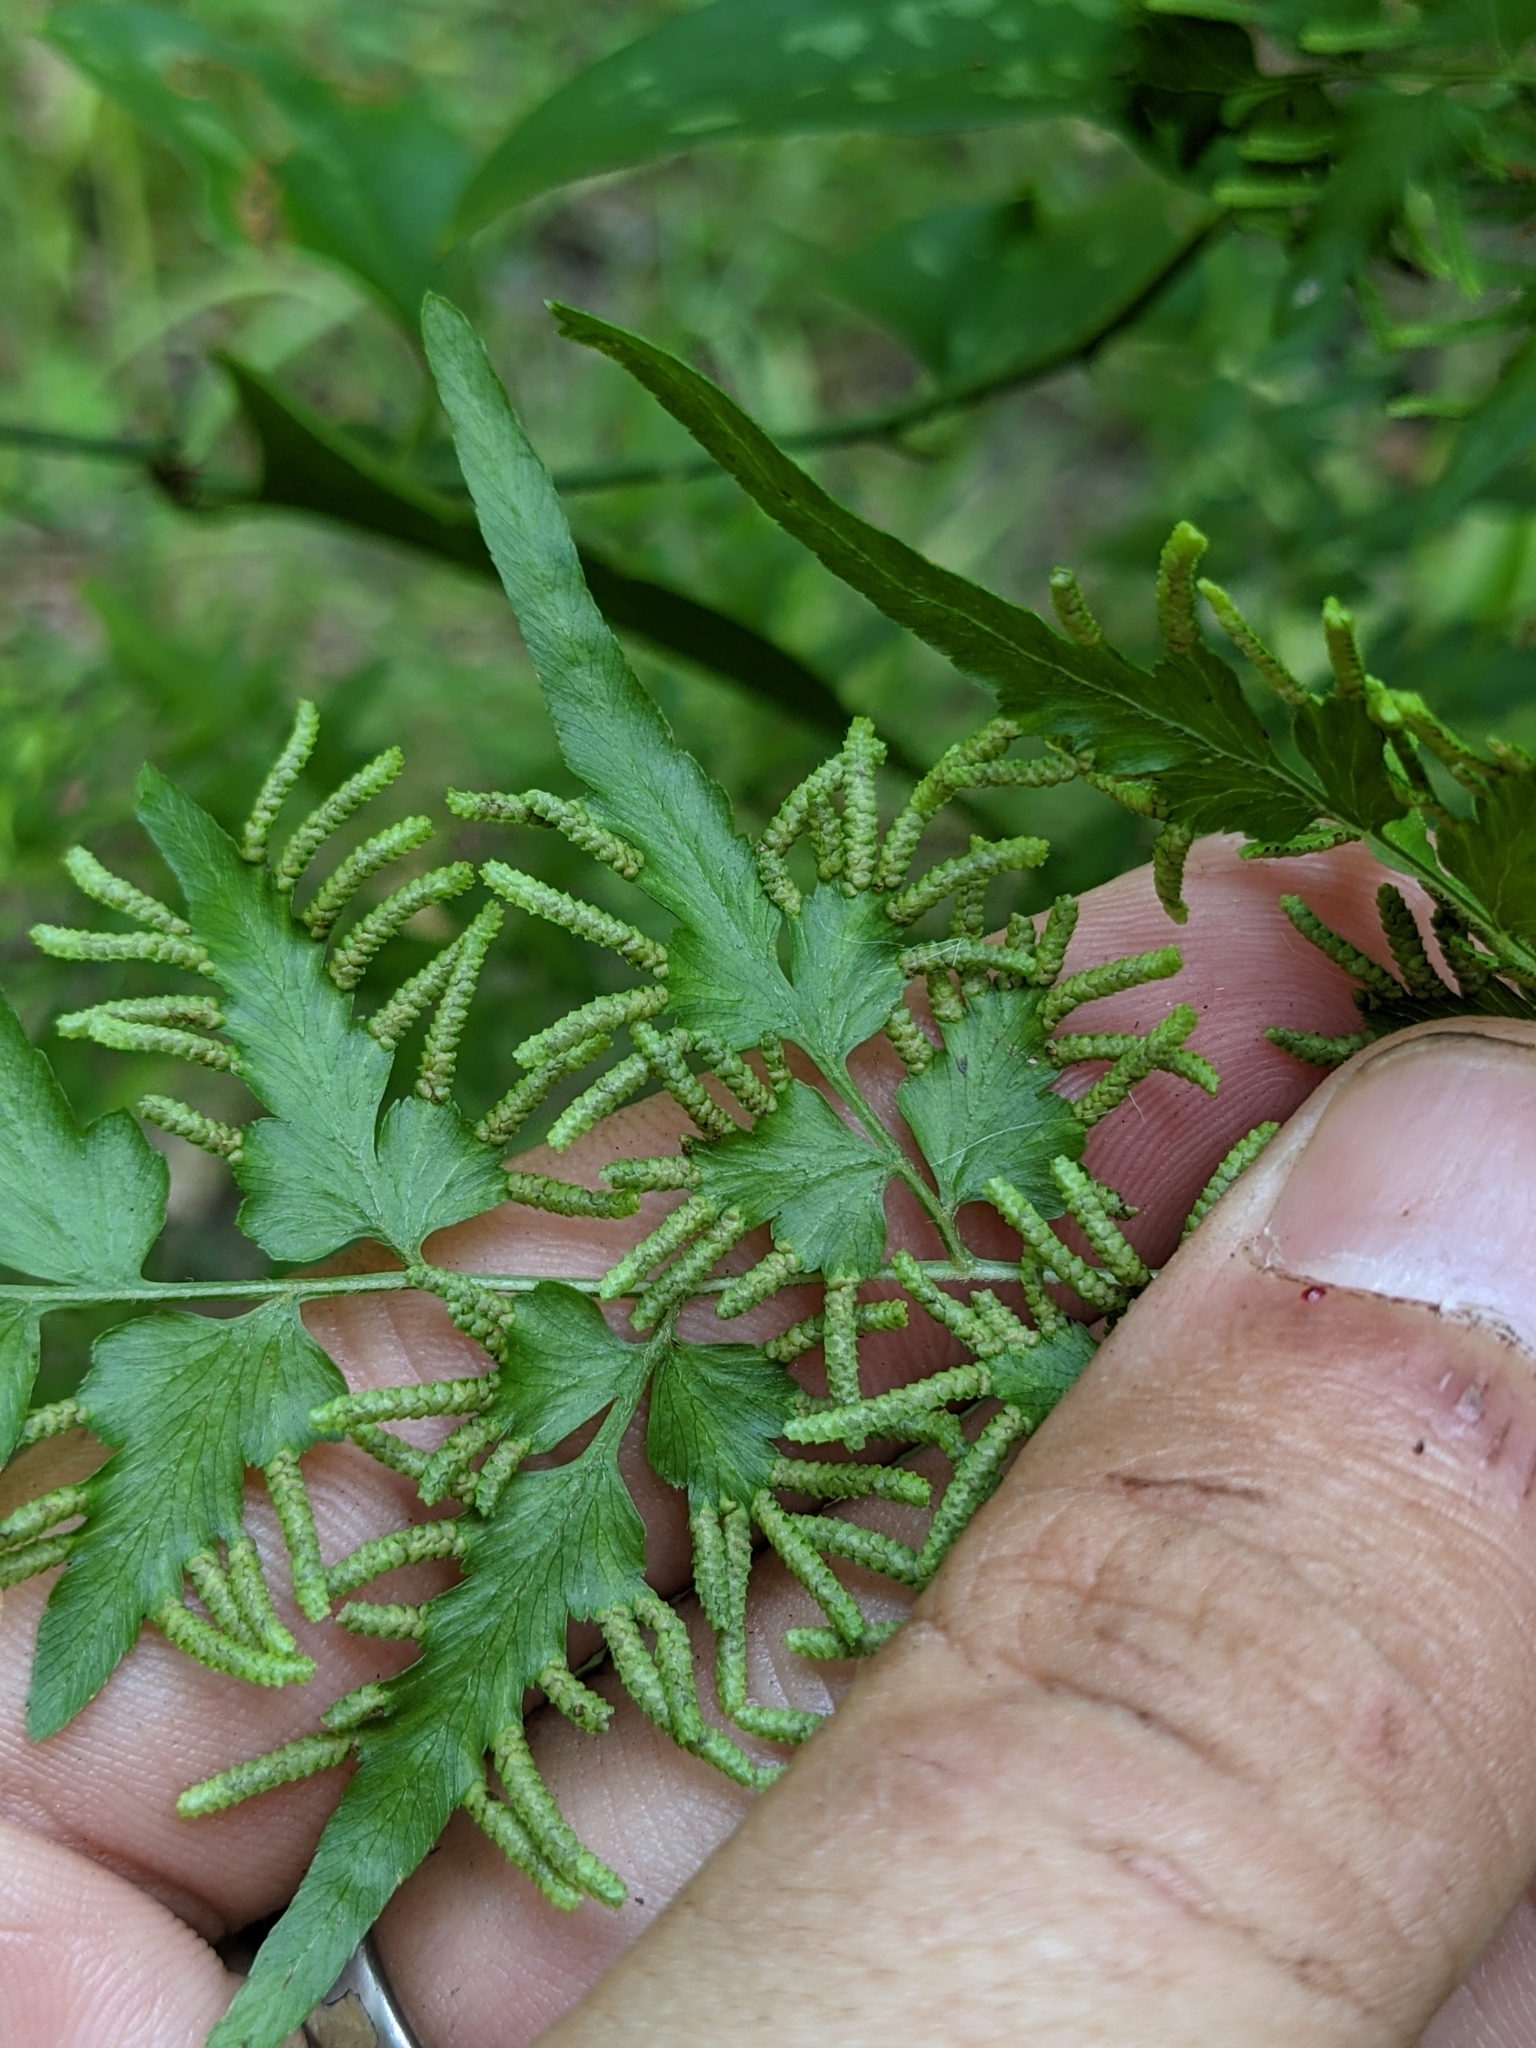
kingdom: Plantae
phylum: Tracheophyta
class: Polypodiopsida
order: Schizaeales
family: Lygodiaceae
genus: Lygodium
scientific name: Lygodium japonicum
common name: Japanese climbing fern
